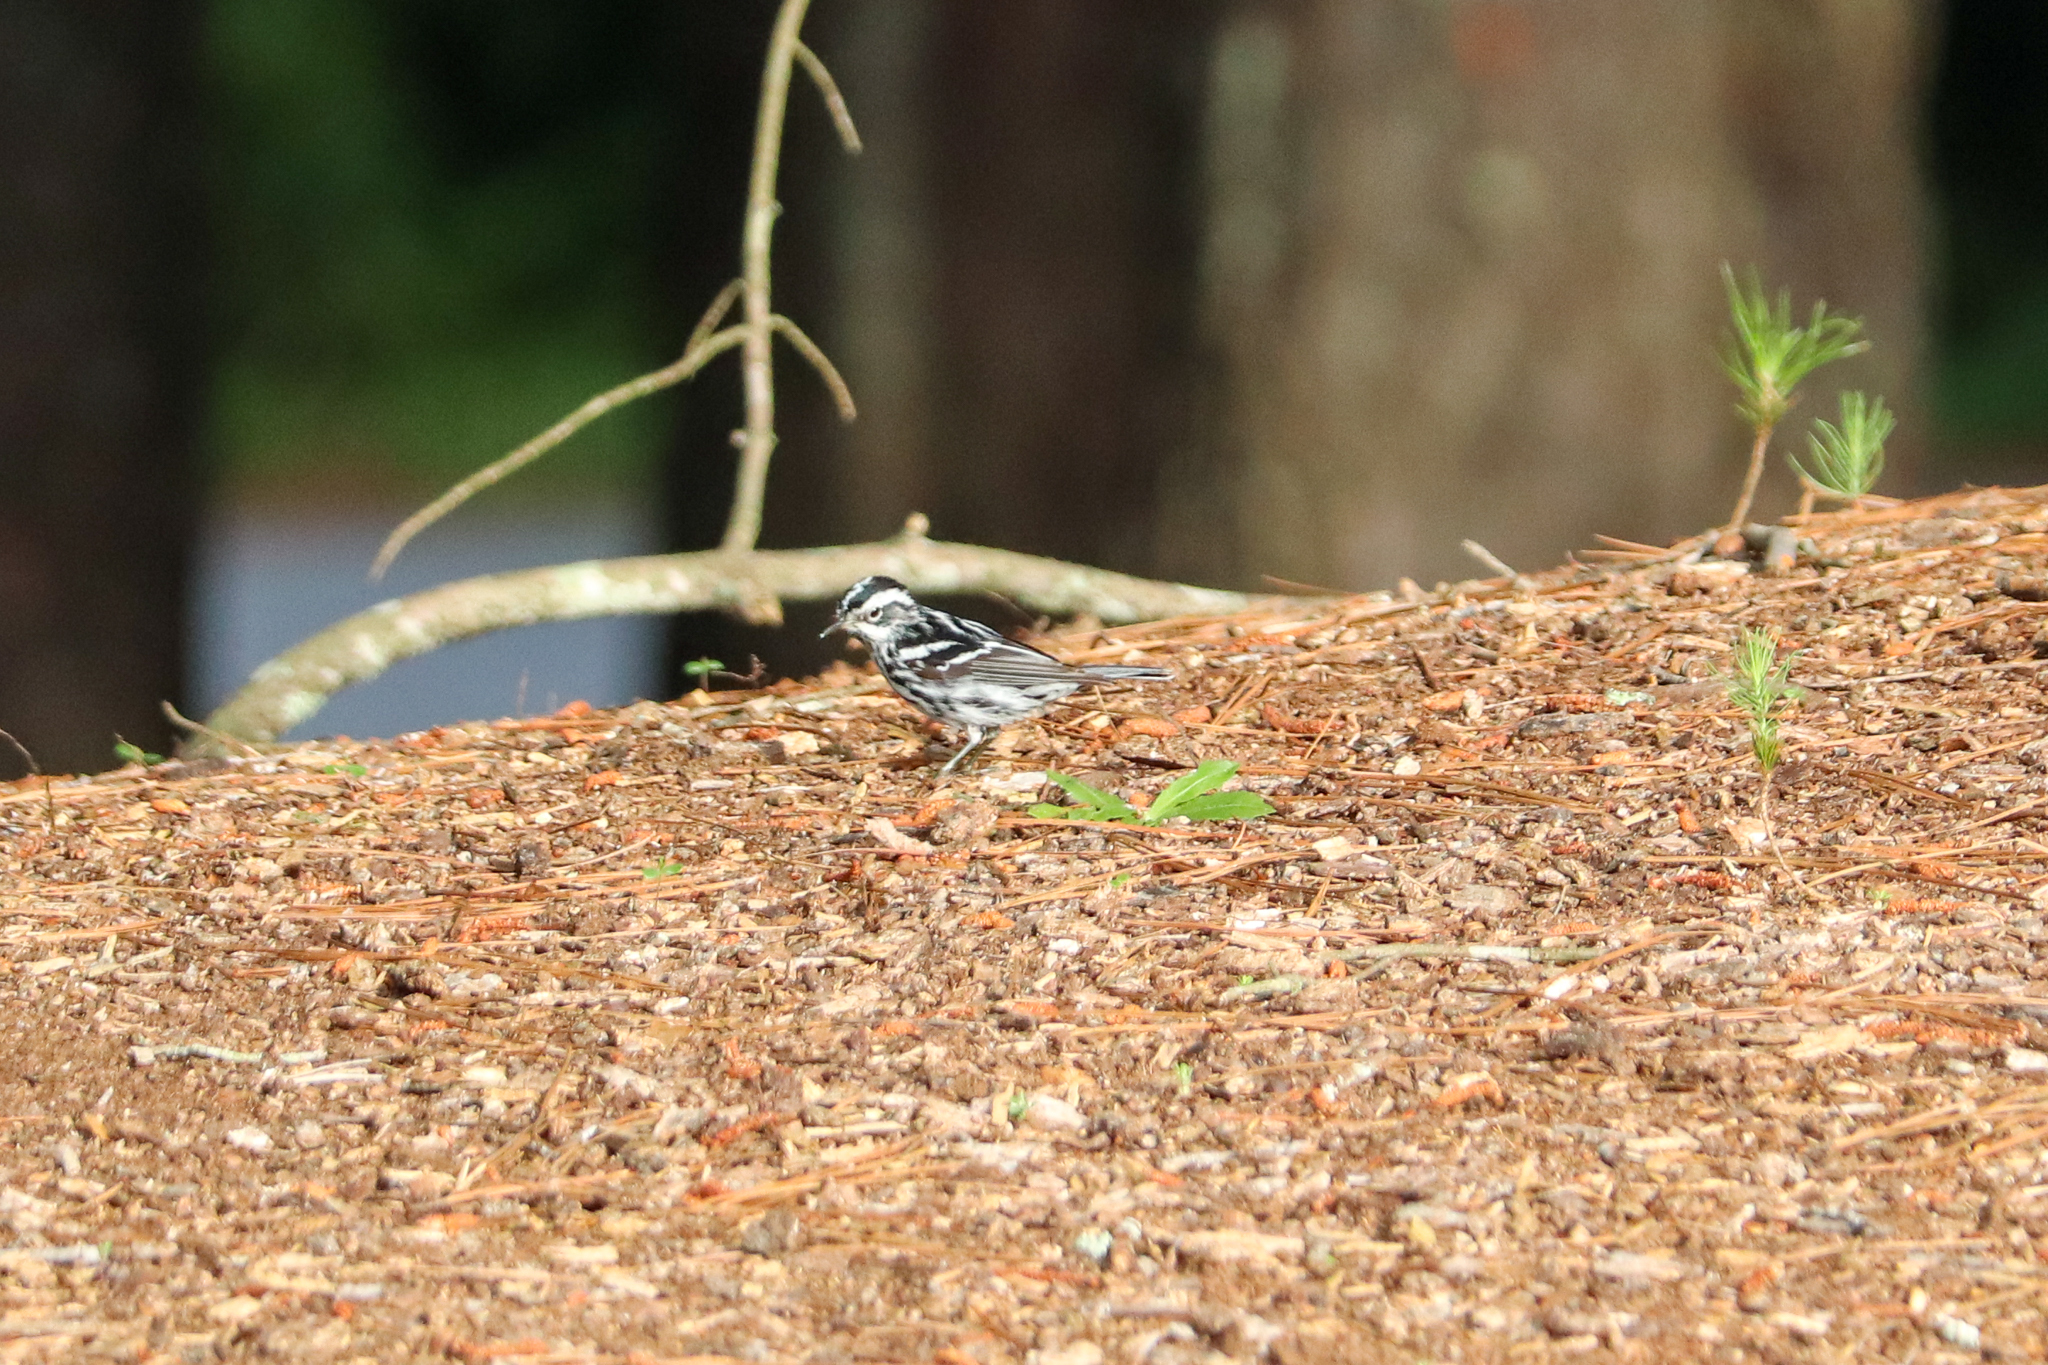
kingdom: Animalia
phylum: Chordata
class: Aves
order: Passeriformes
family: Parulidae
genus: Mniotilta
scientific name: Mniotilta varia
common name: Black-and-white warbler
